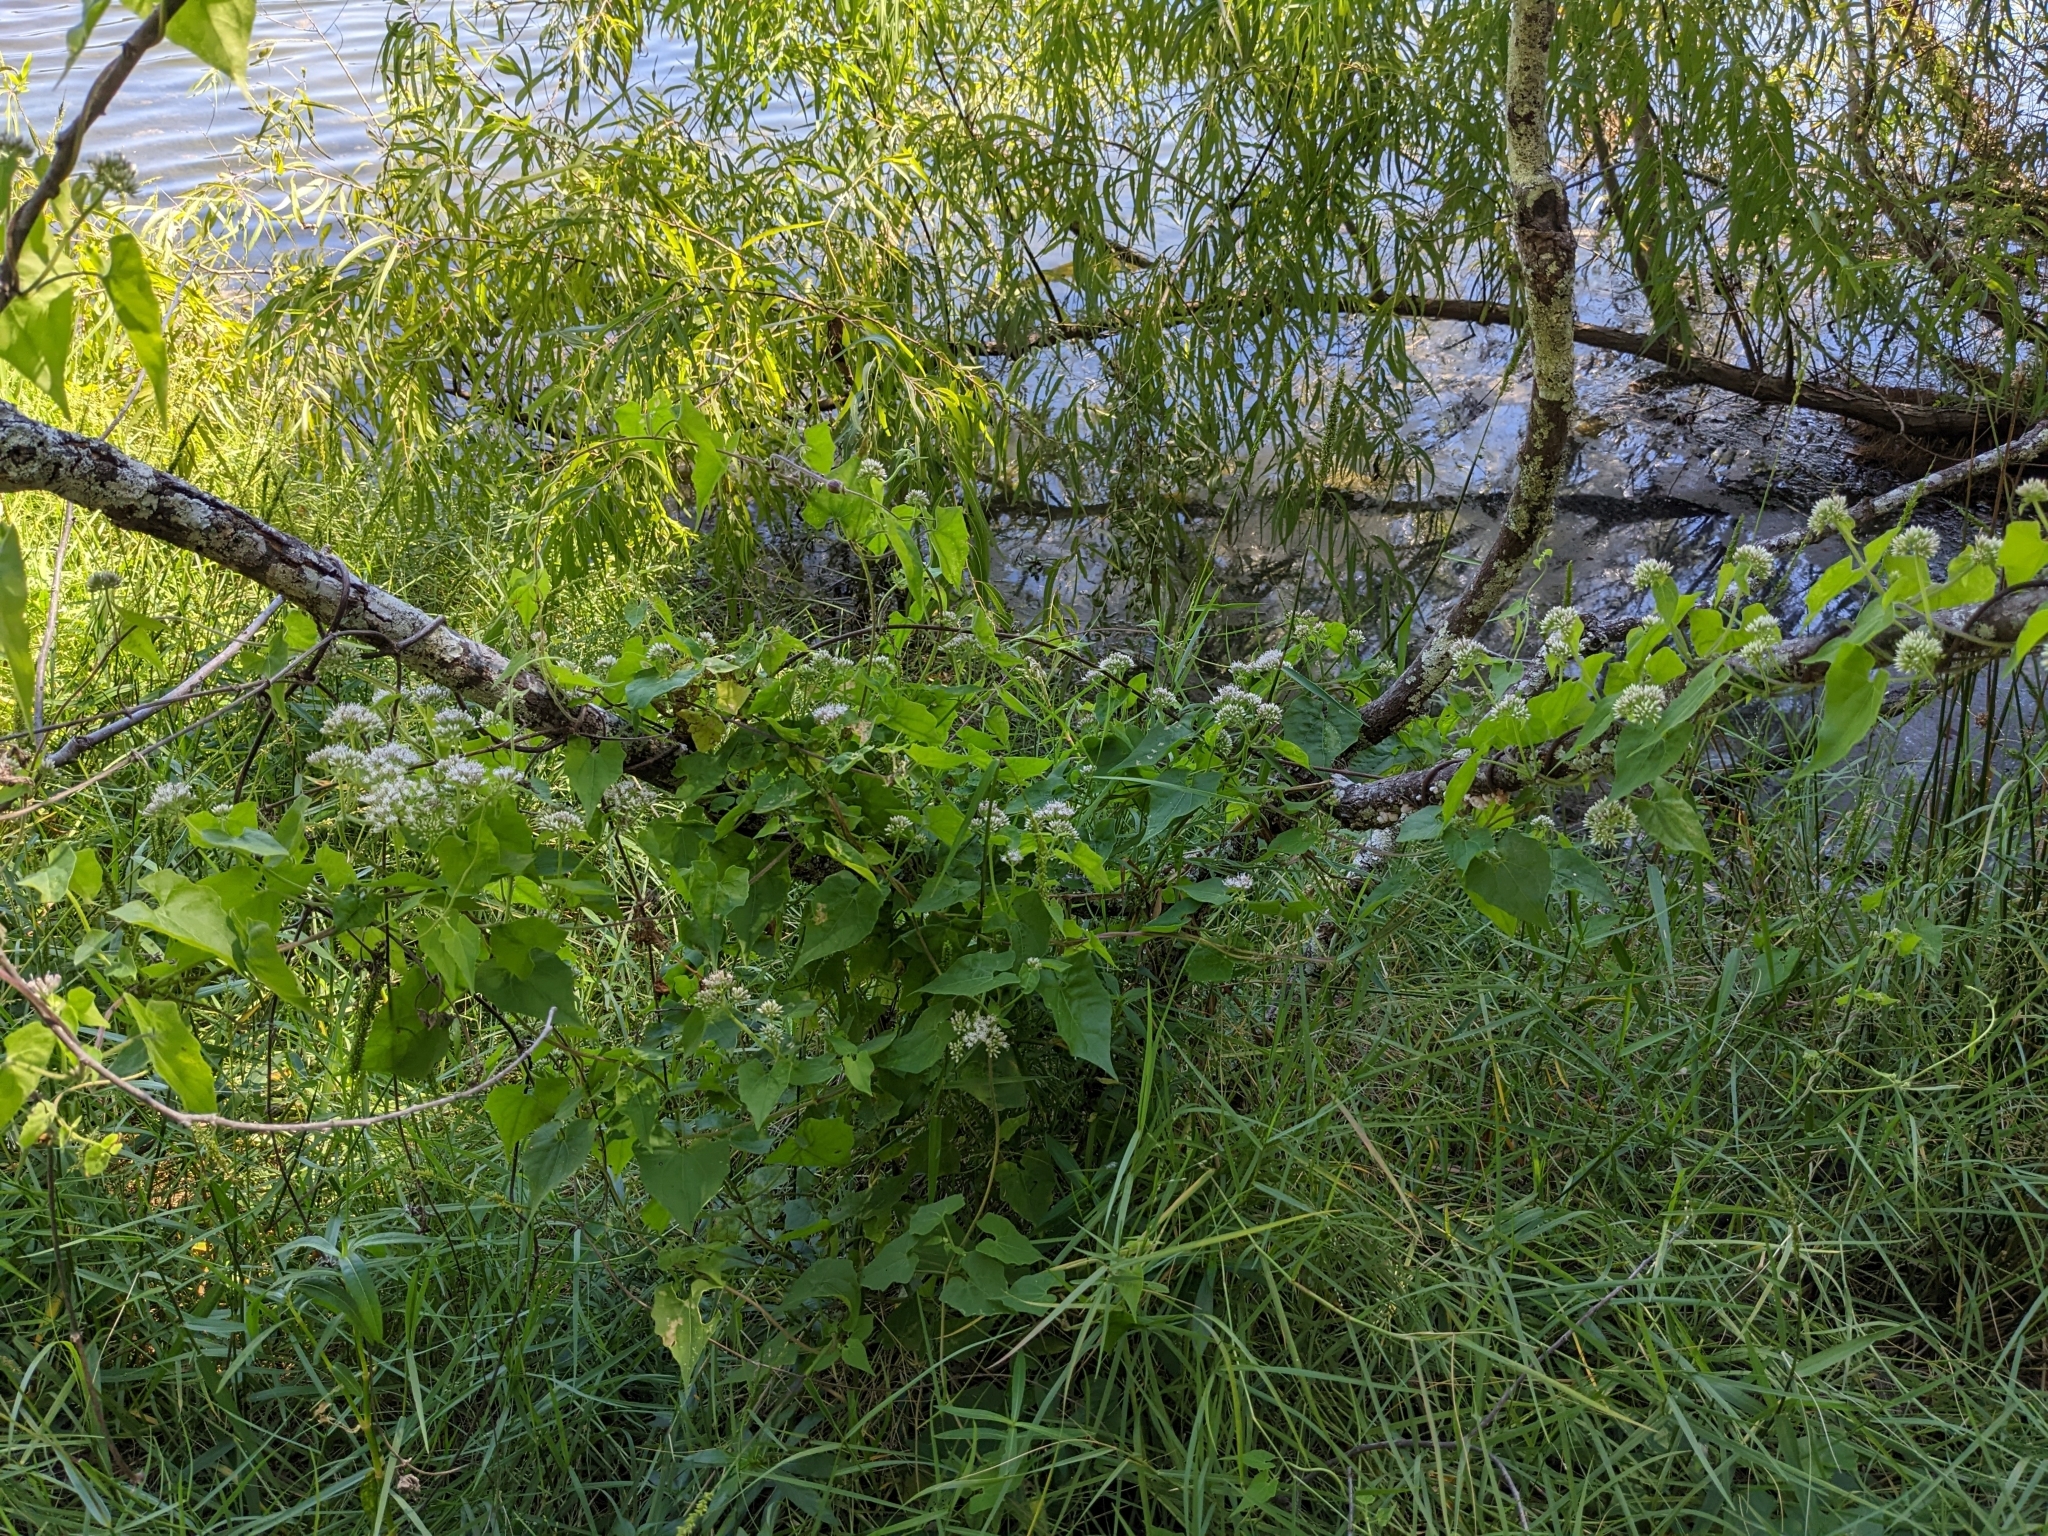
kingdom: Plantae
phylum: Tracheophyta
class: Magnoliopsida
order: Asterales
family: Asteraceae
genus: Mikania
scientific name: Mikania scandens
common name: Climbing hempvine
